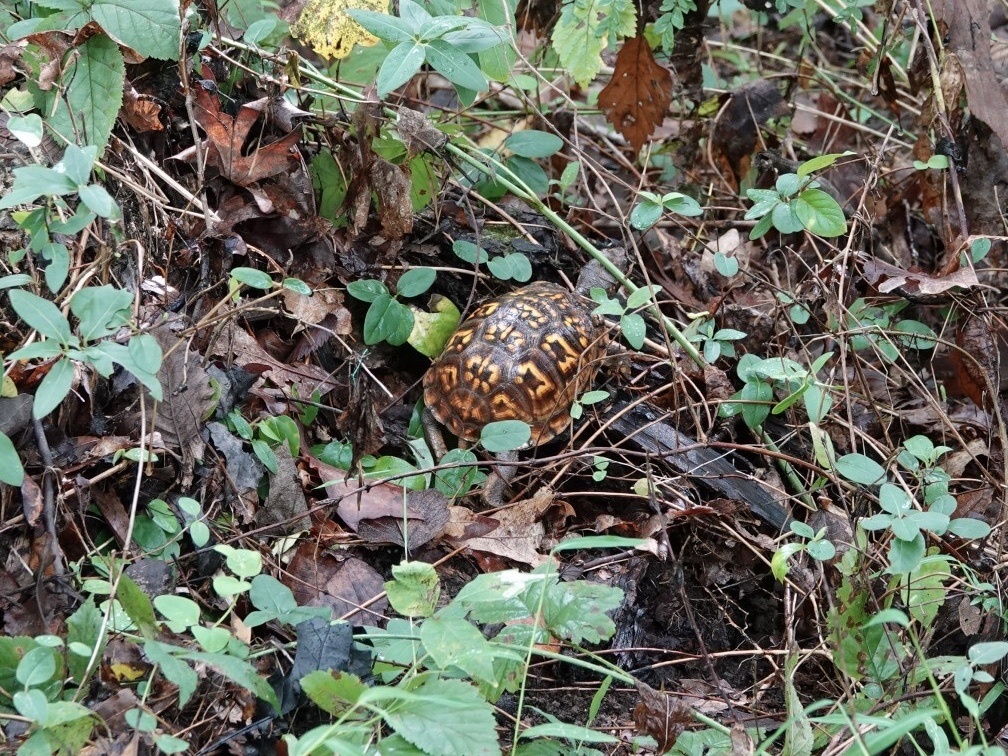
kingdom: Animalia
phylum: Chordata
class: Testudines
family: Emydidae
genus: Terrapene
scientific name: Terrapene carolina
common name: Common box turtle
